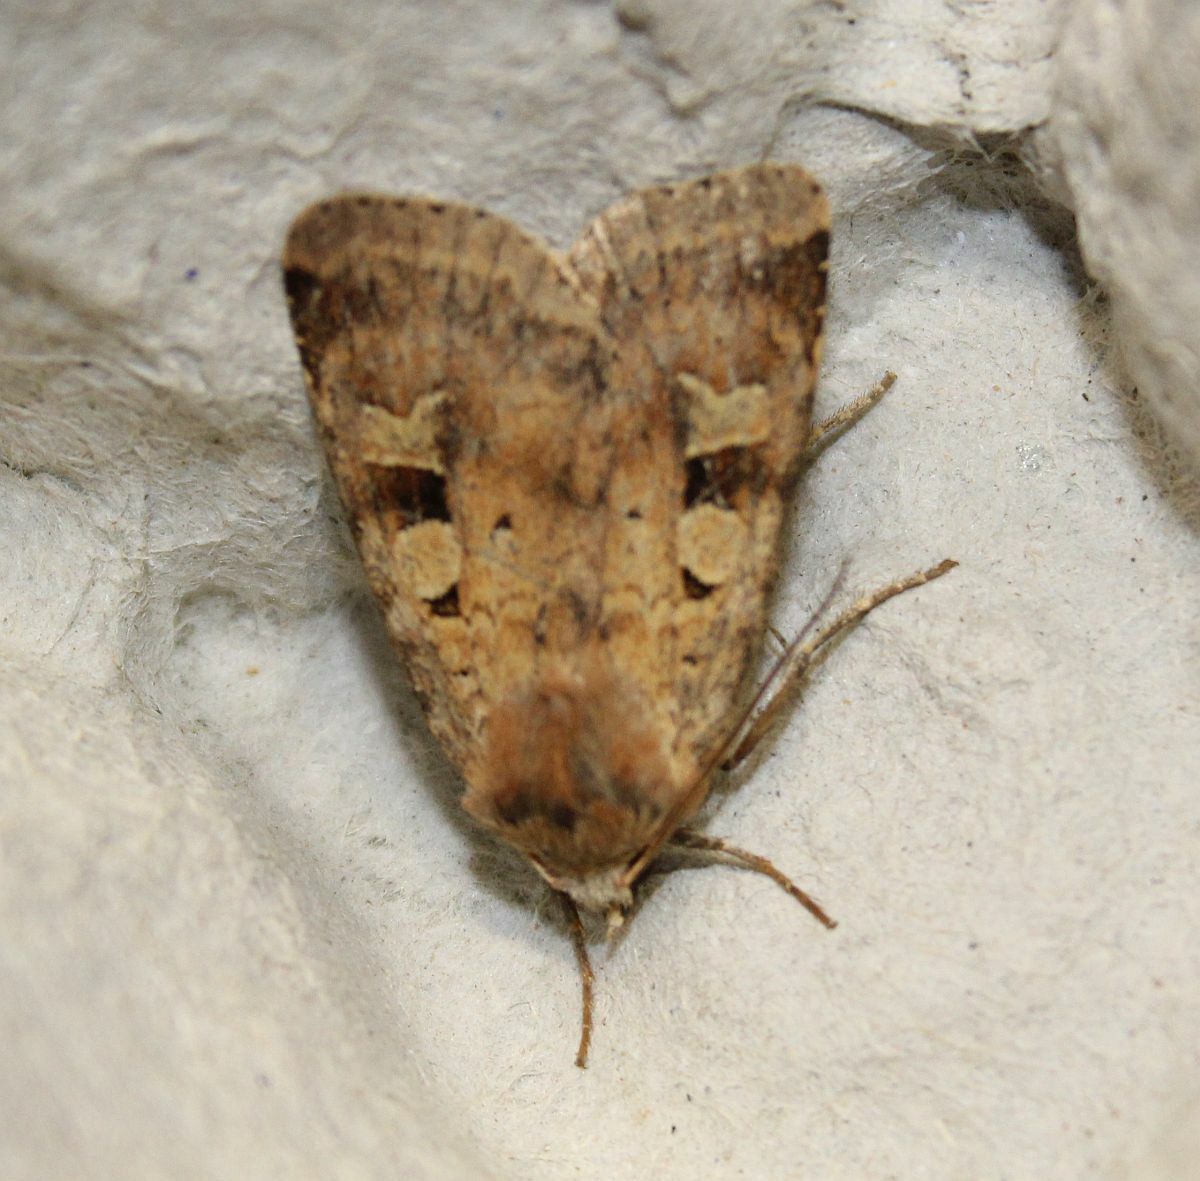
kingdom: Animalia
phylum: Arthropoda
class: Insecta
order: Lepidoptera
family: Noctuidae
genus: Diarsia
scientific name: Diarsia mendica
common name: Ingrailed clay
